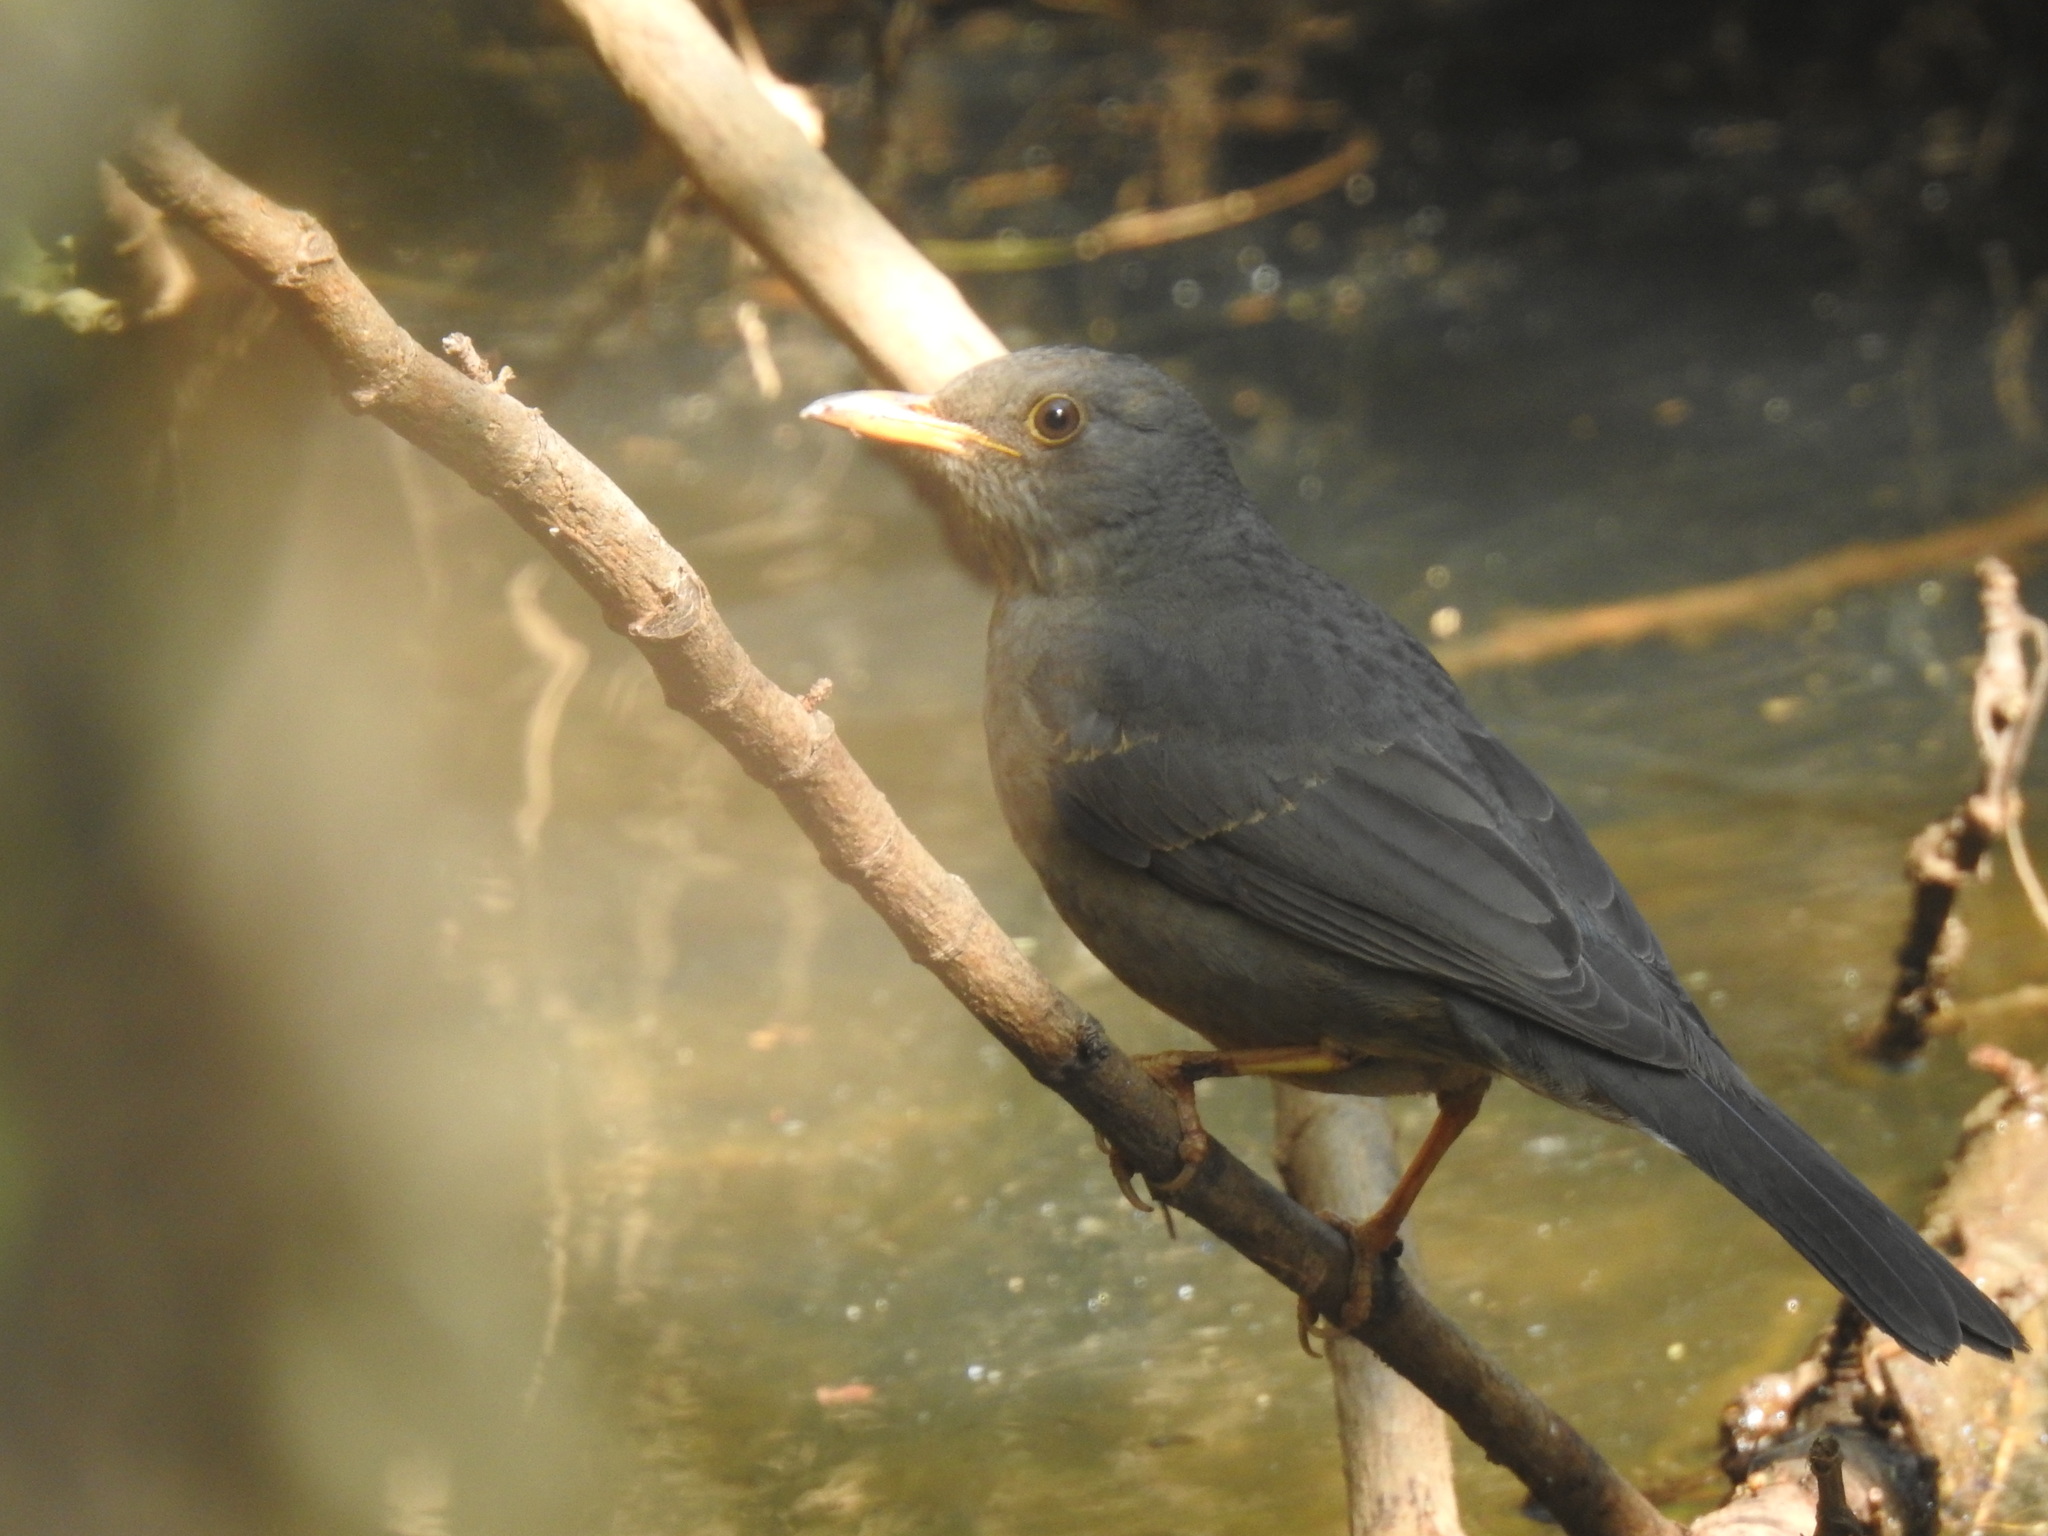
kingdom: Animalia
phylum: Chordata
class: Aves
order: Passeriformes
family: Turdidae
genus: Turdus
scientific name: Turdus smithi
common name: Karoo thrush
